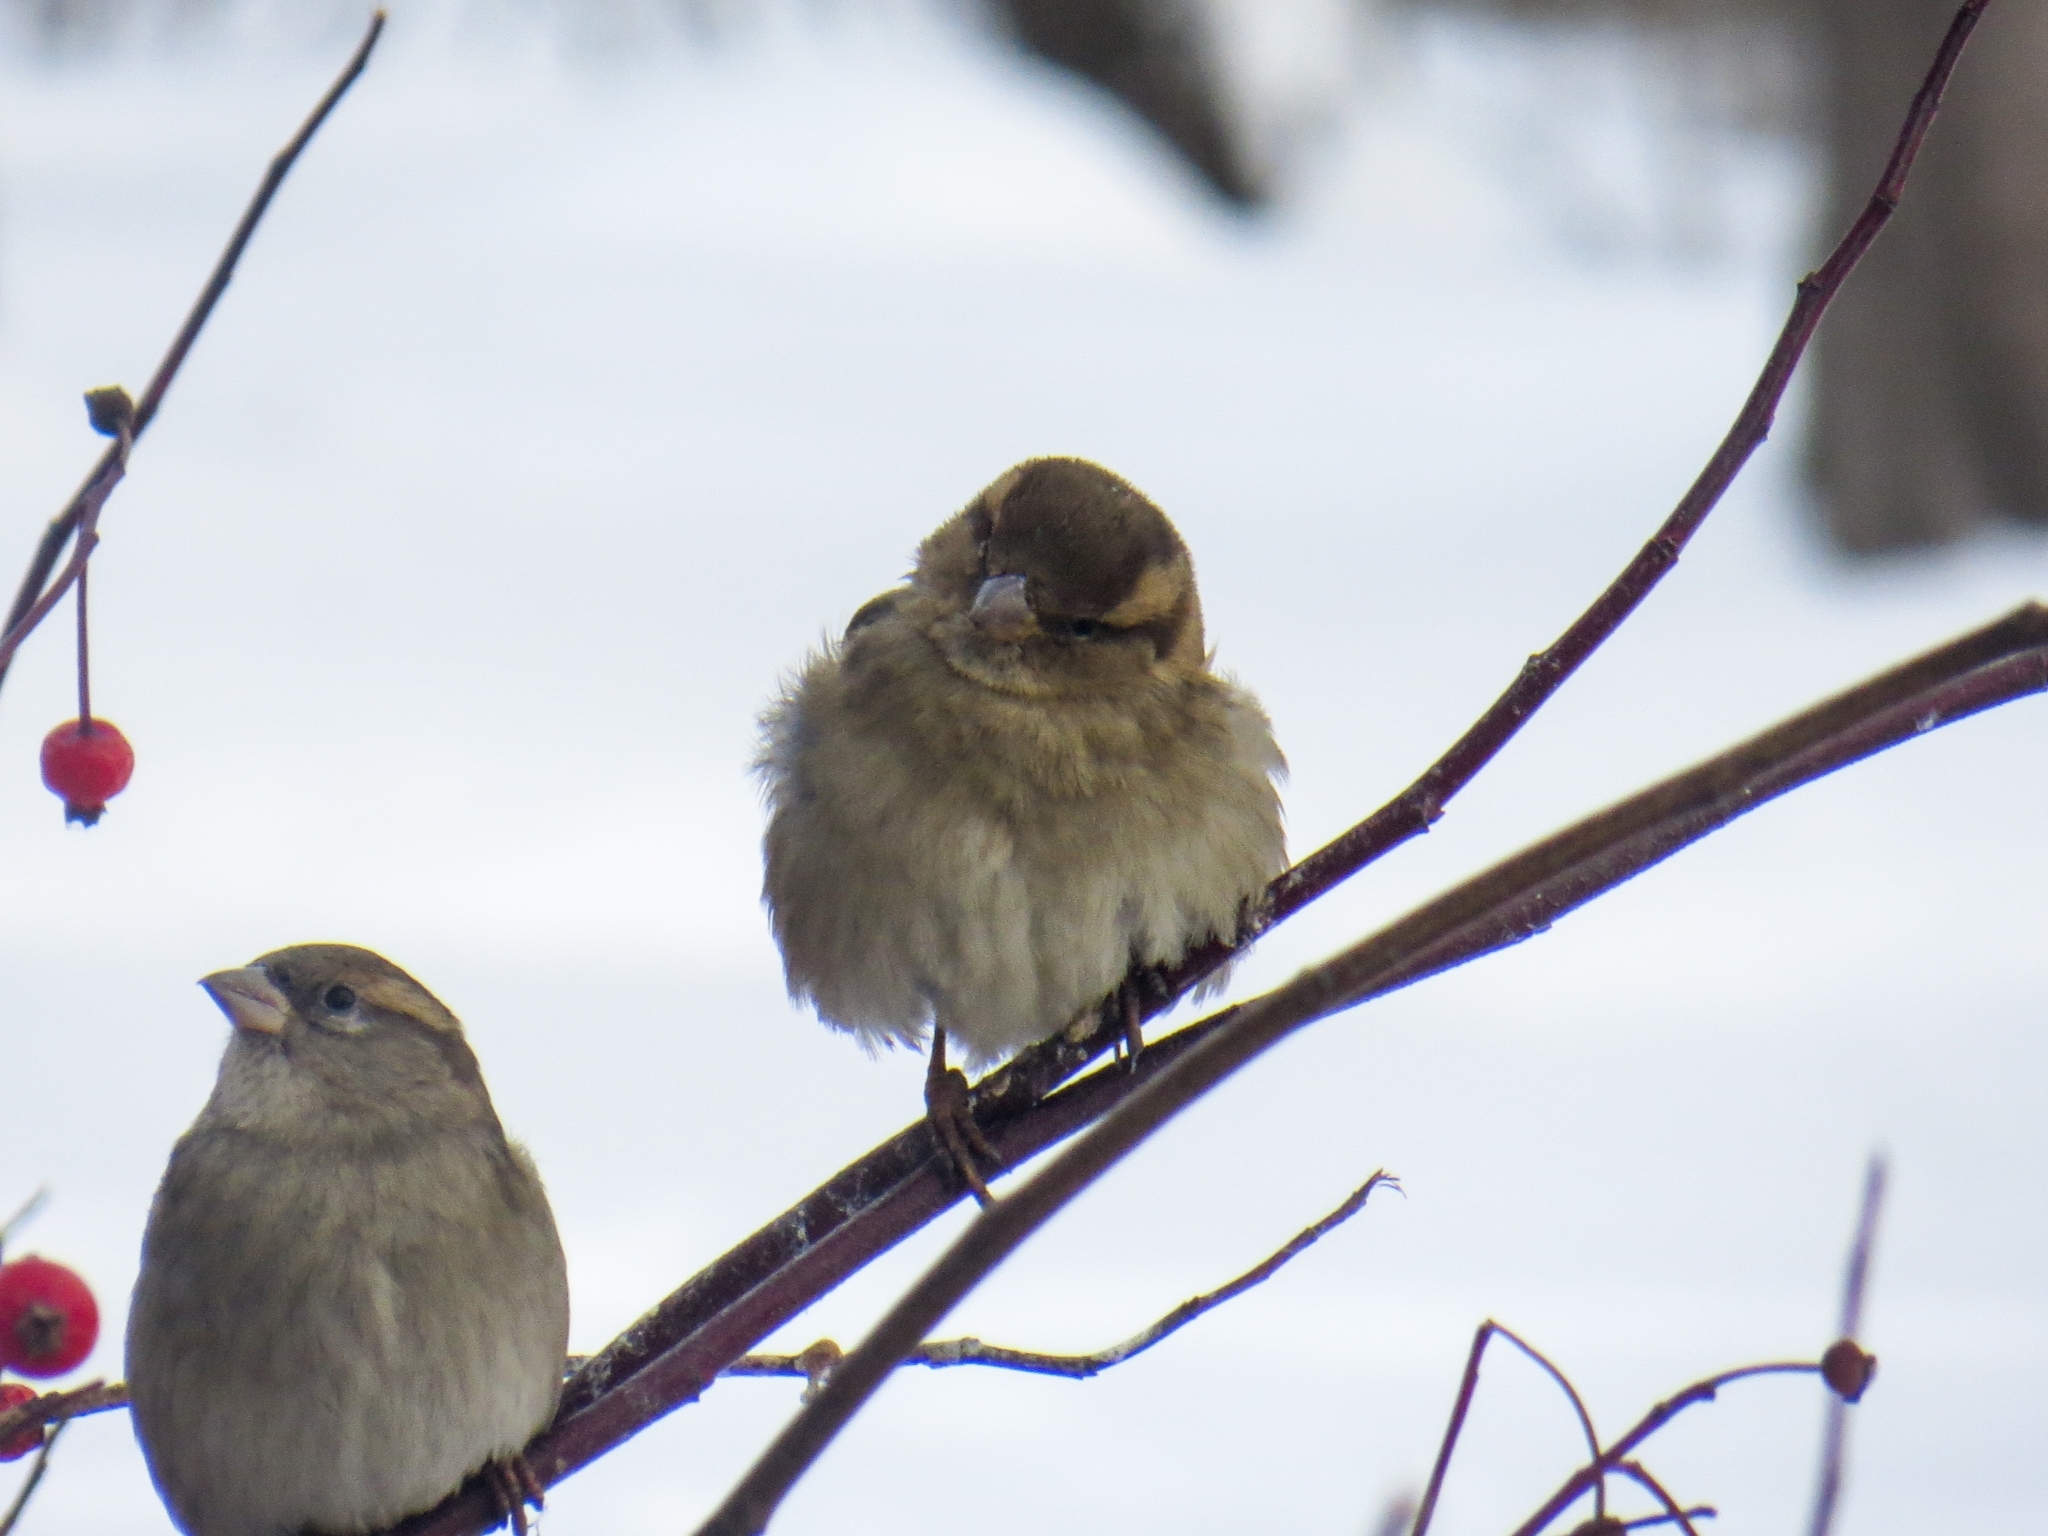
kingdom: Animalia
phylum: Chordata
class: Aves
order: Passeriformes
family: Passeridae
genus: Passer
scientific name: Passer domesticus
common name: House sparrow
